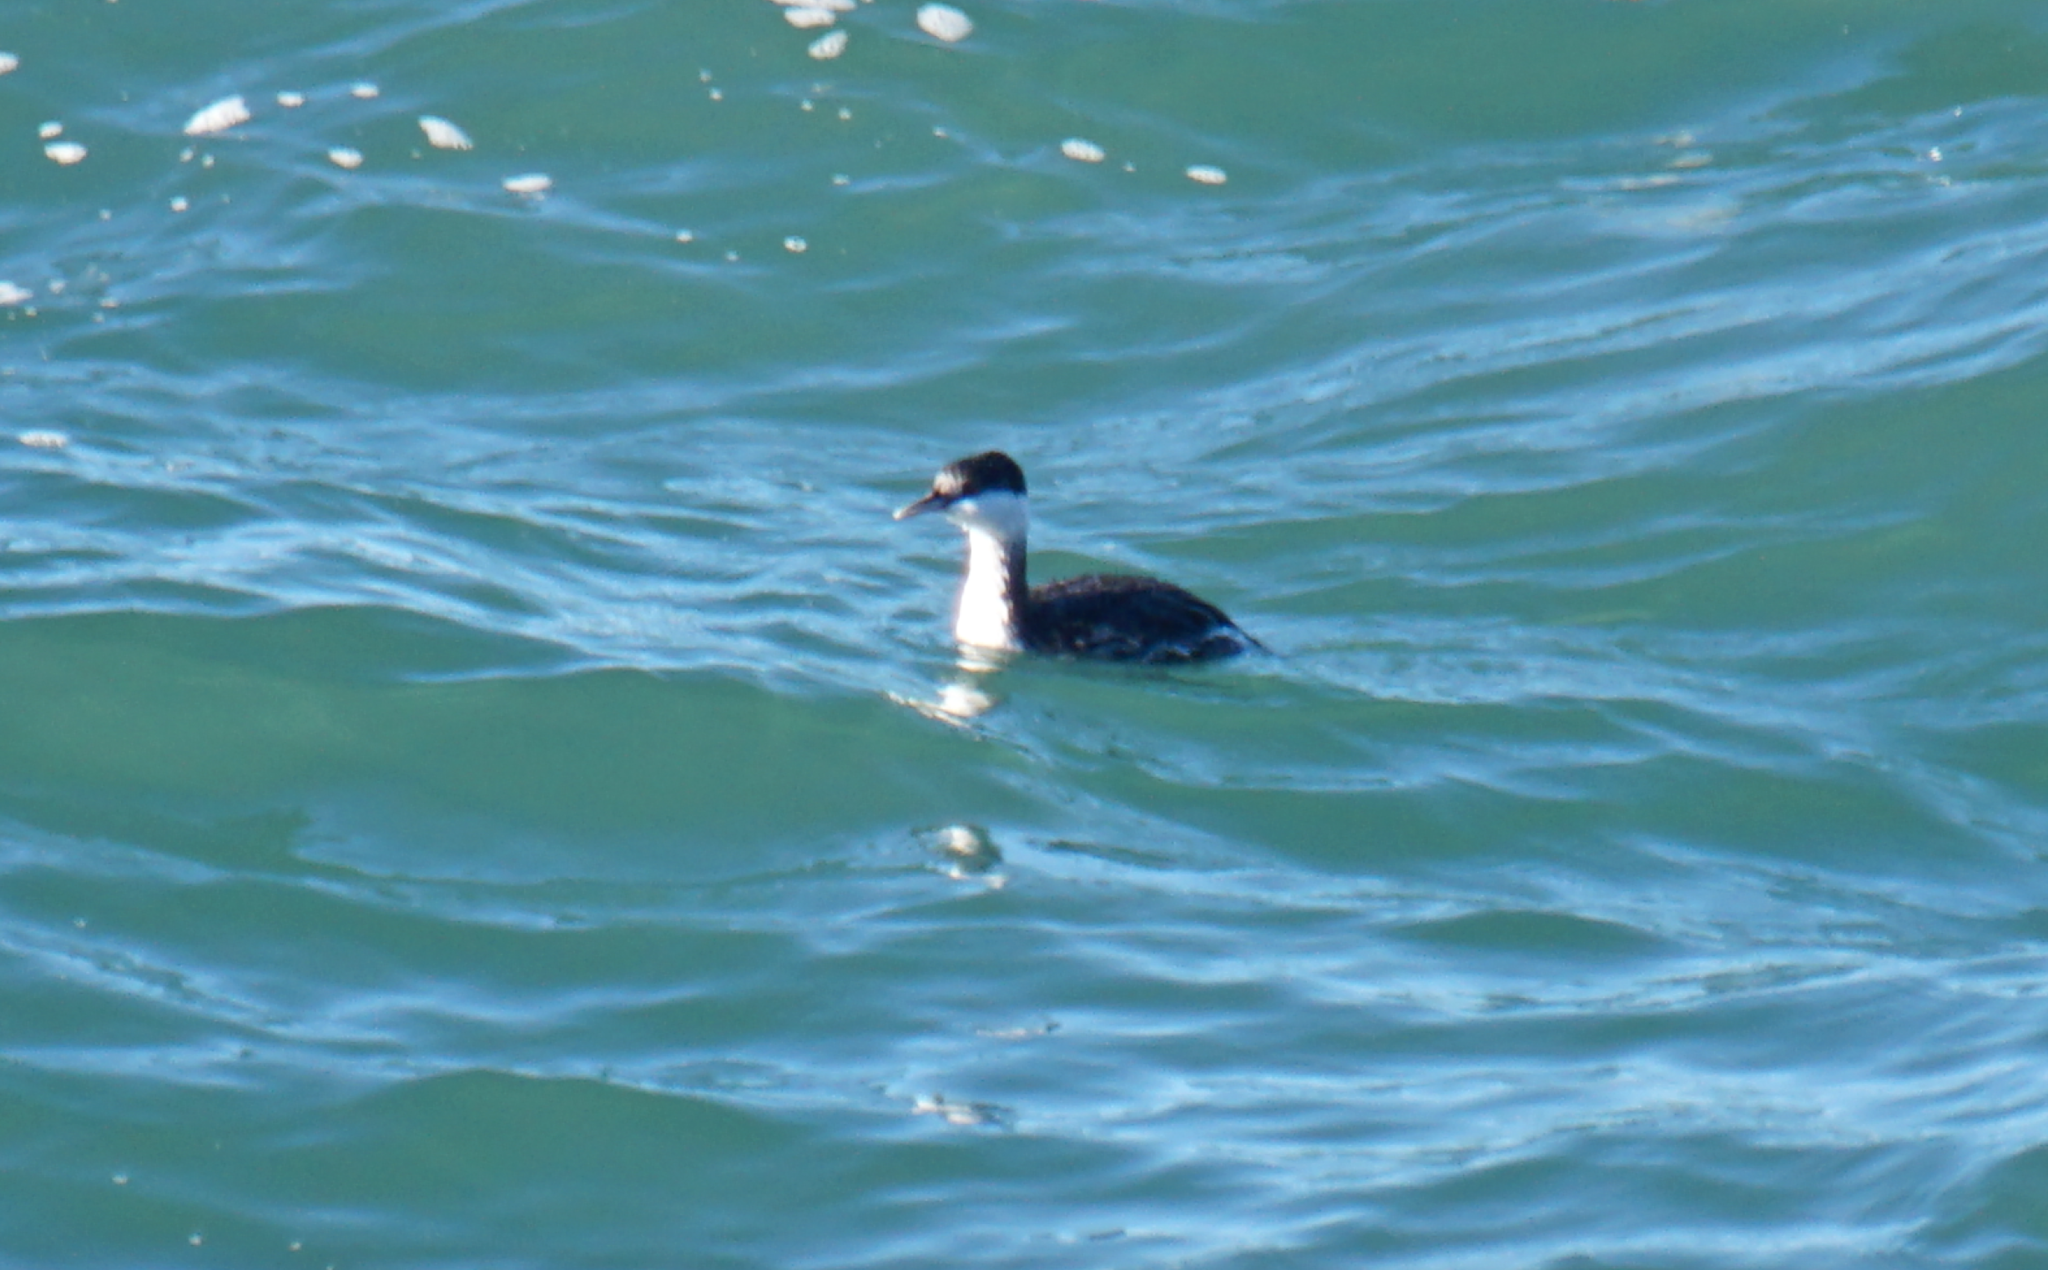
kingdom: Animalia
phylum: Chordata
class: Aves
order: Podicipediformes
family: Podicipedidae
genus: Podiceps
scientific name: Podiceps auritus
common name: Horned grebe
